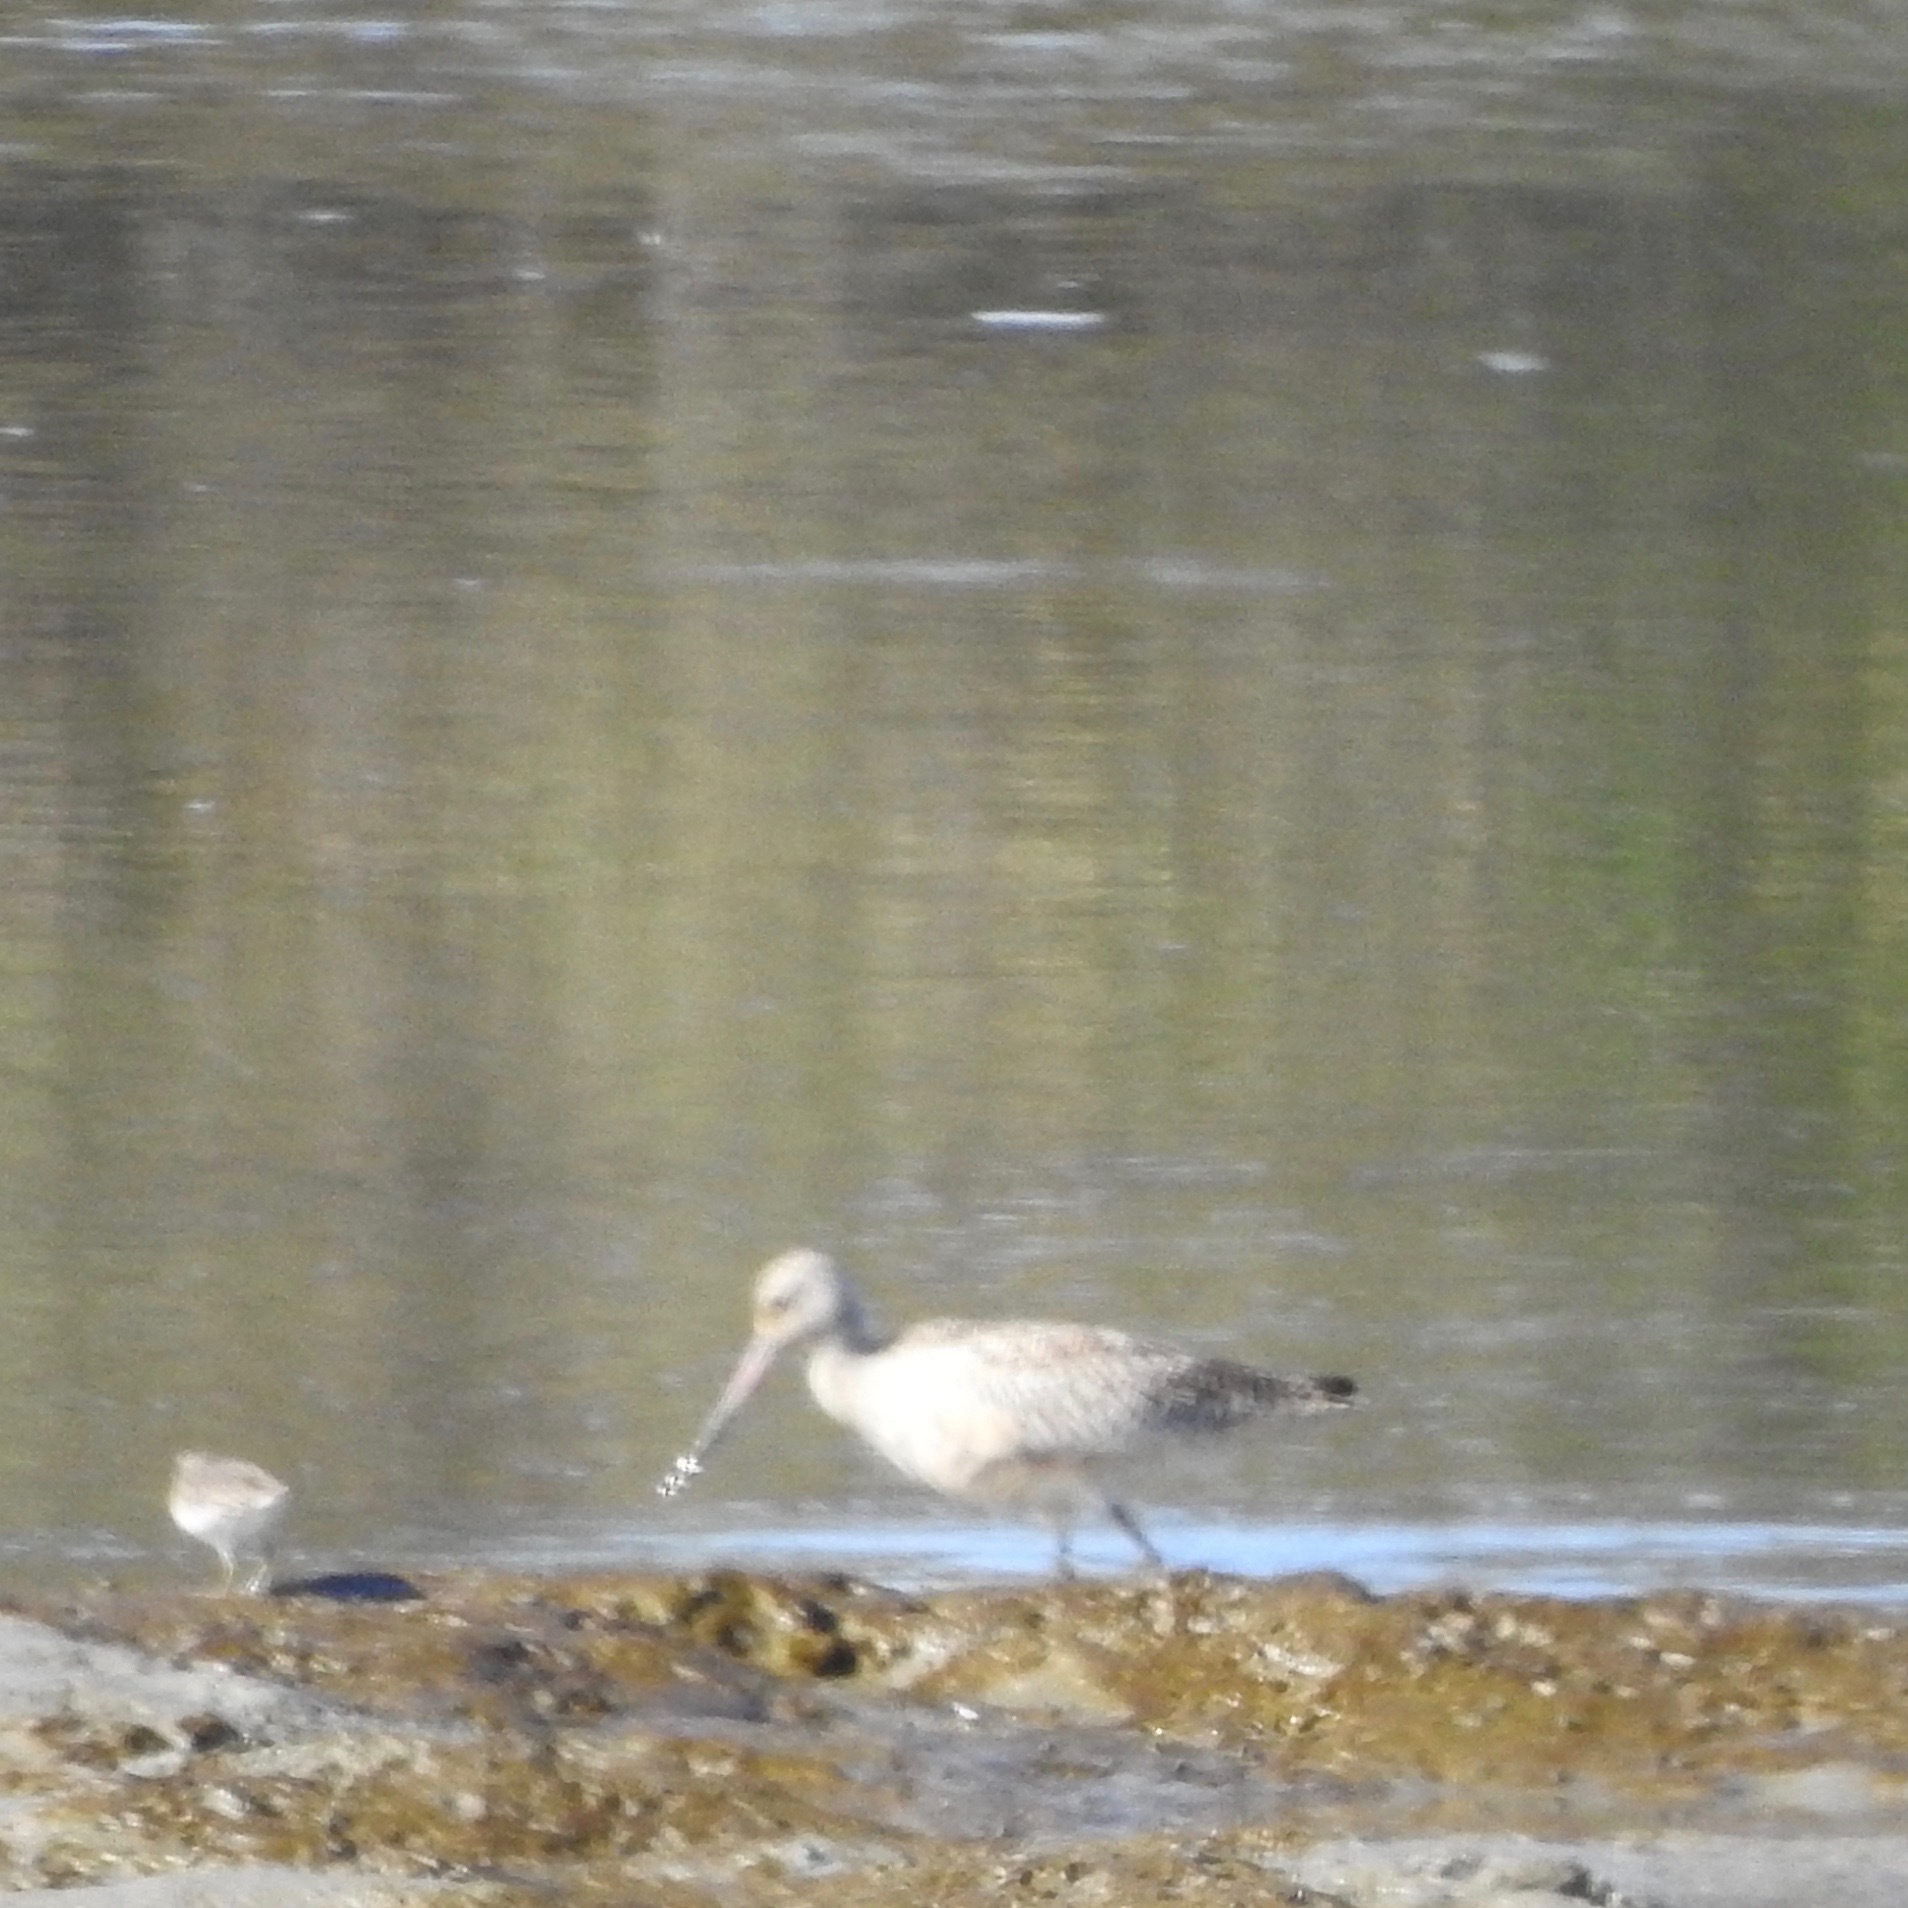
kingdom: Animalia
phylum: Chordata
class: Aves
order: Charadriiformes
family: Scolopacidae
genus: Limosa
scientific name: Limosa fedoa
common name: Marbled godwit
